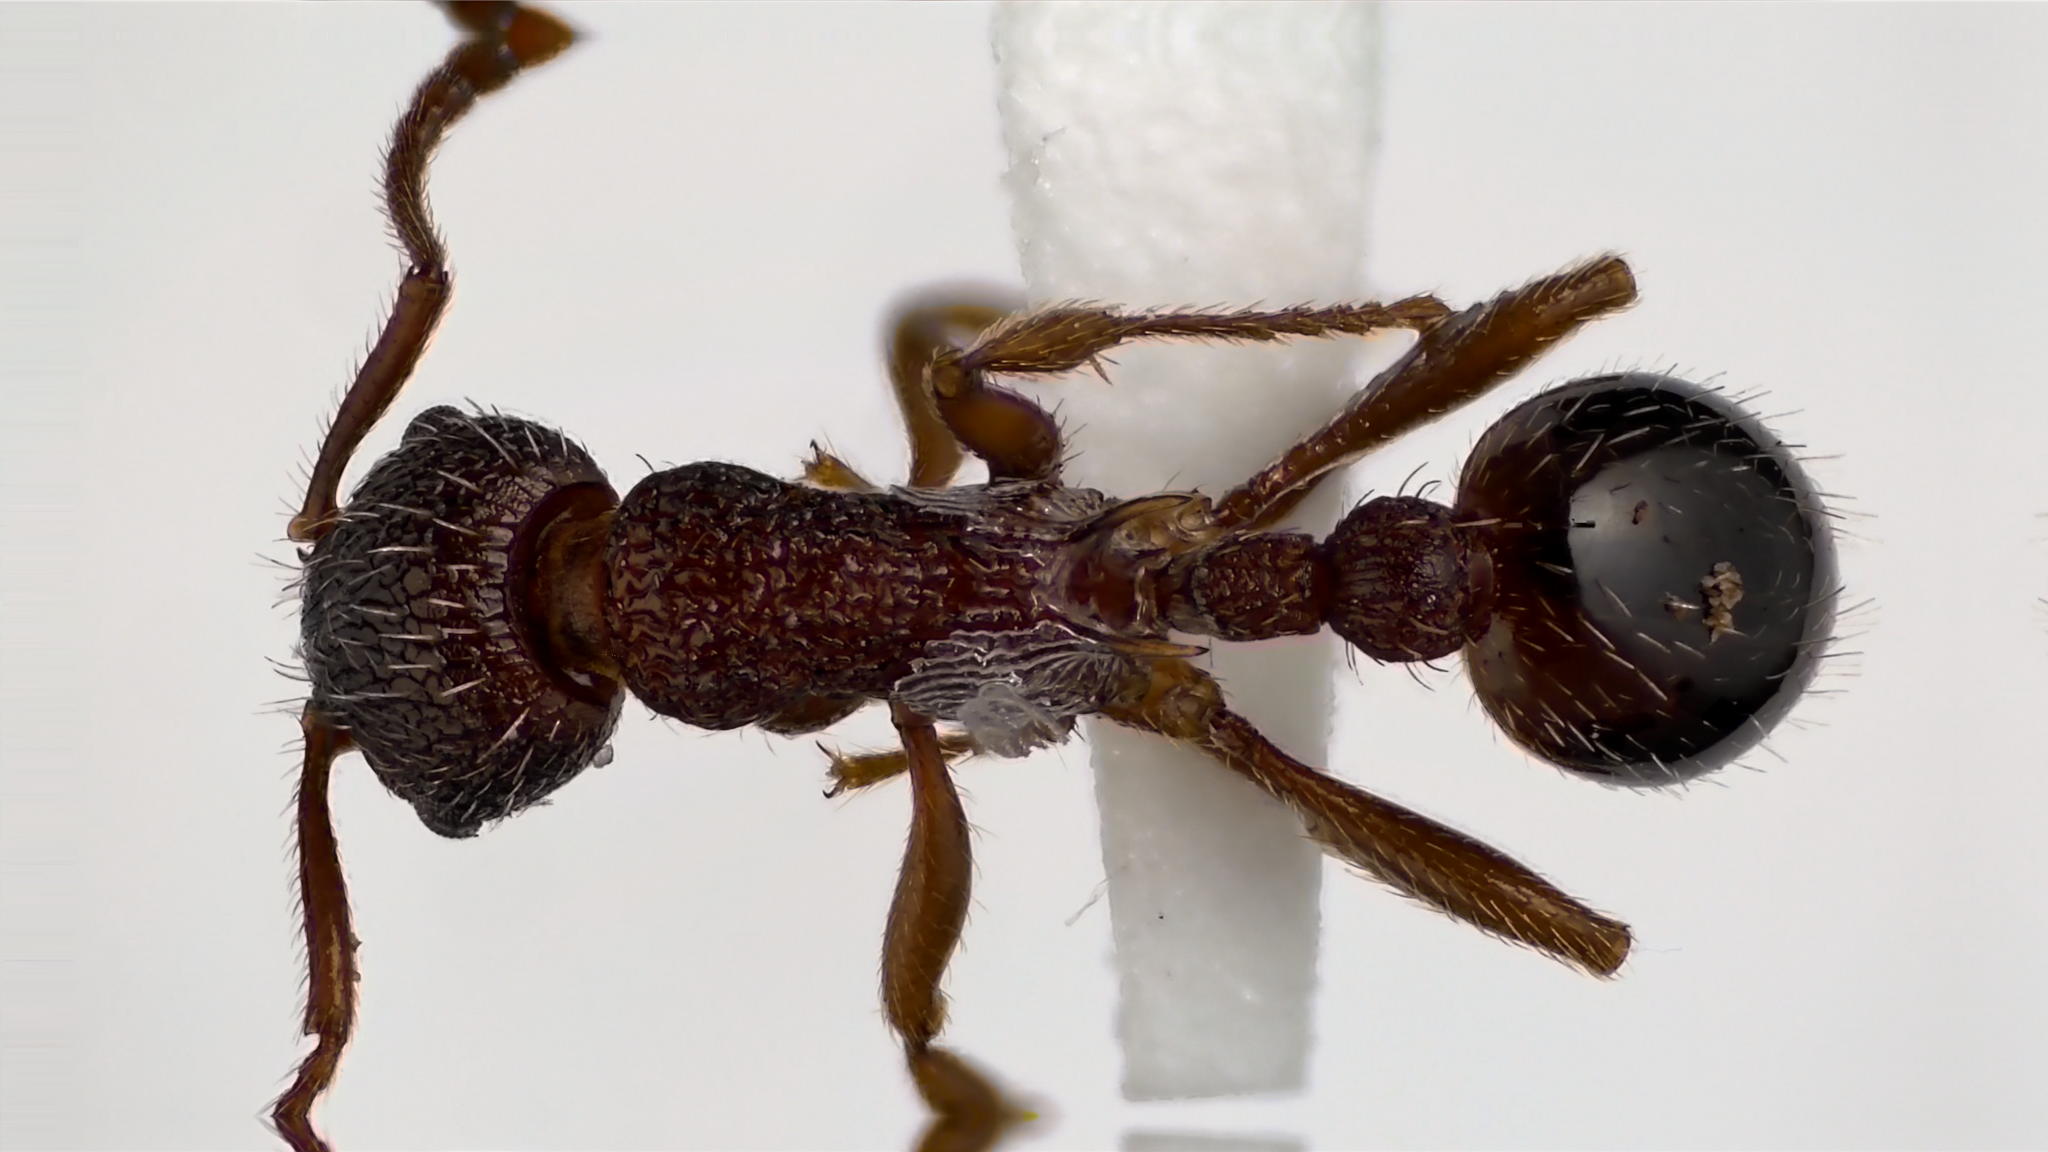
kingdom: Animalia
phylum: Arthropoda
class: Insecta
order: Hymenoptera
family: Formicidae
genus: Myrmica
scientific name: Myrmica americana
